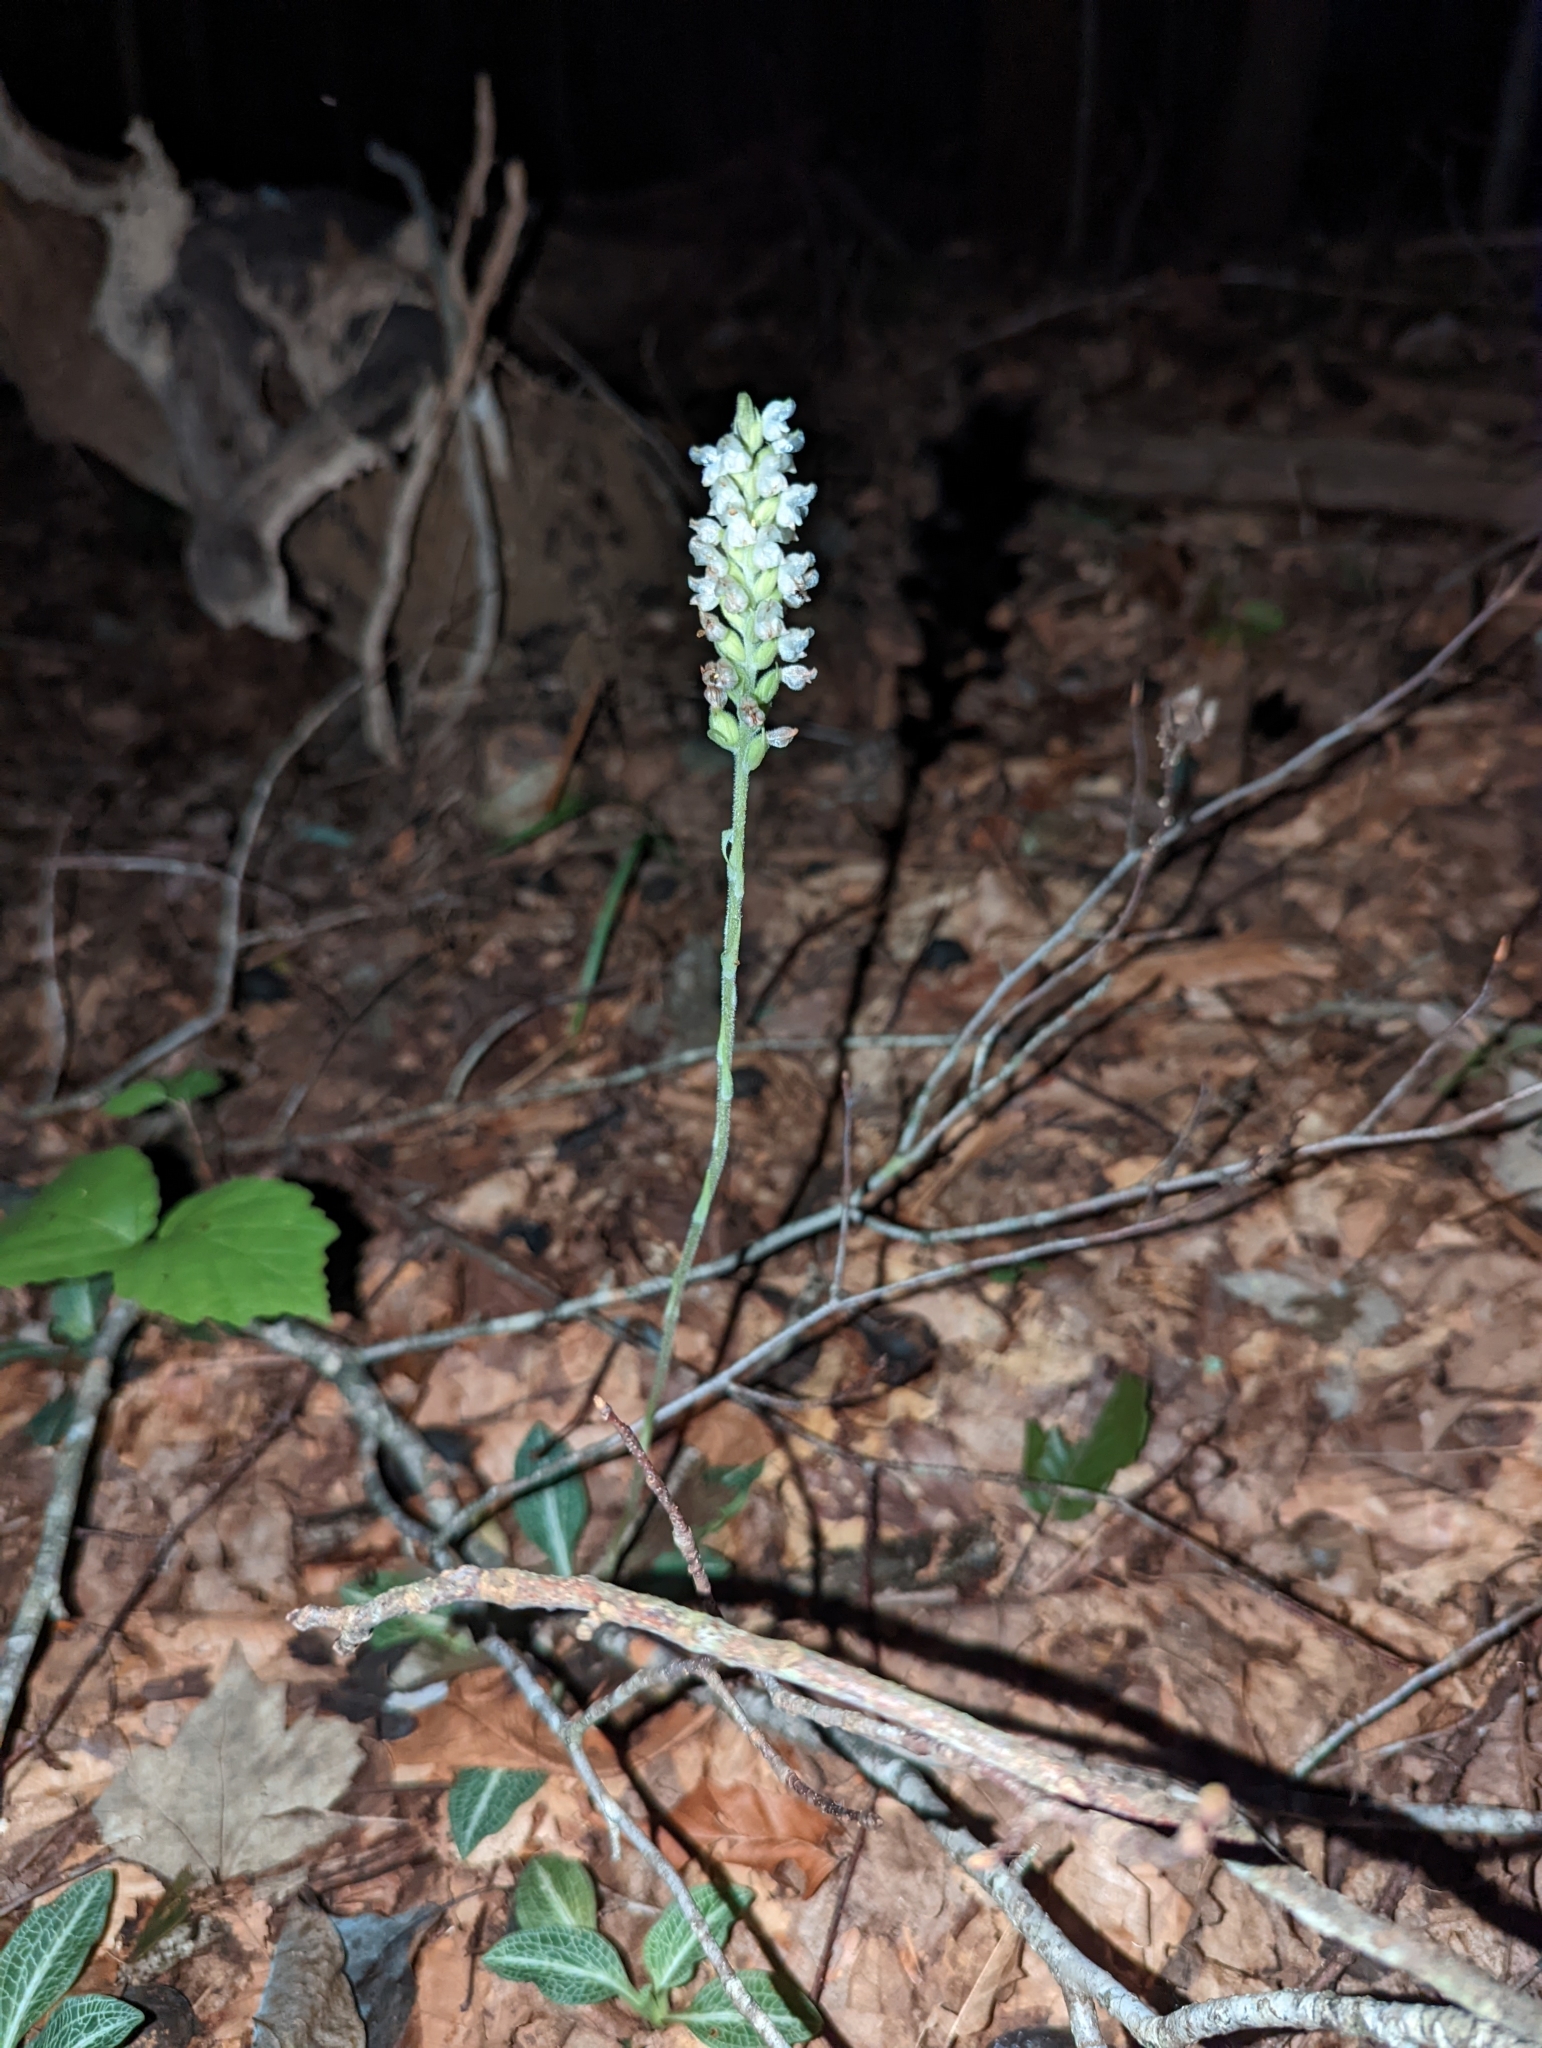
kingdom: Plantae
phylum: Tracheophyta
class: Liliopsida
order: Asparagales
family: Orchidaceae
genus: Goodyera
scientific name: Goodyera pubescens
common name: Downy rattlesnake-plantain
